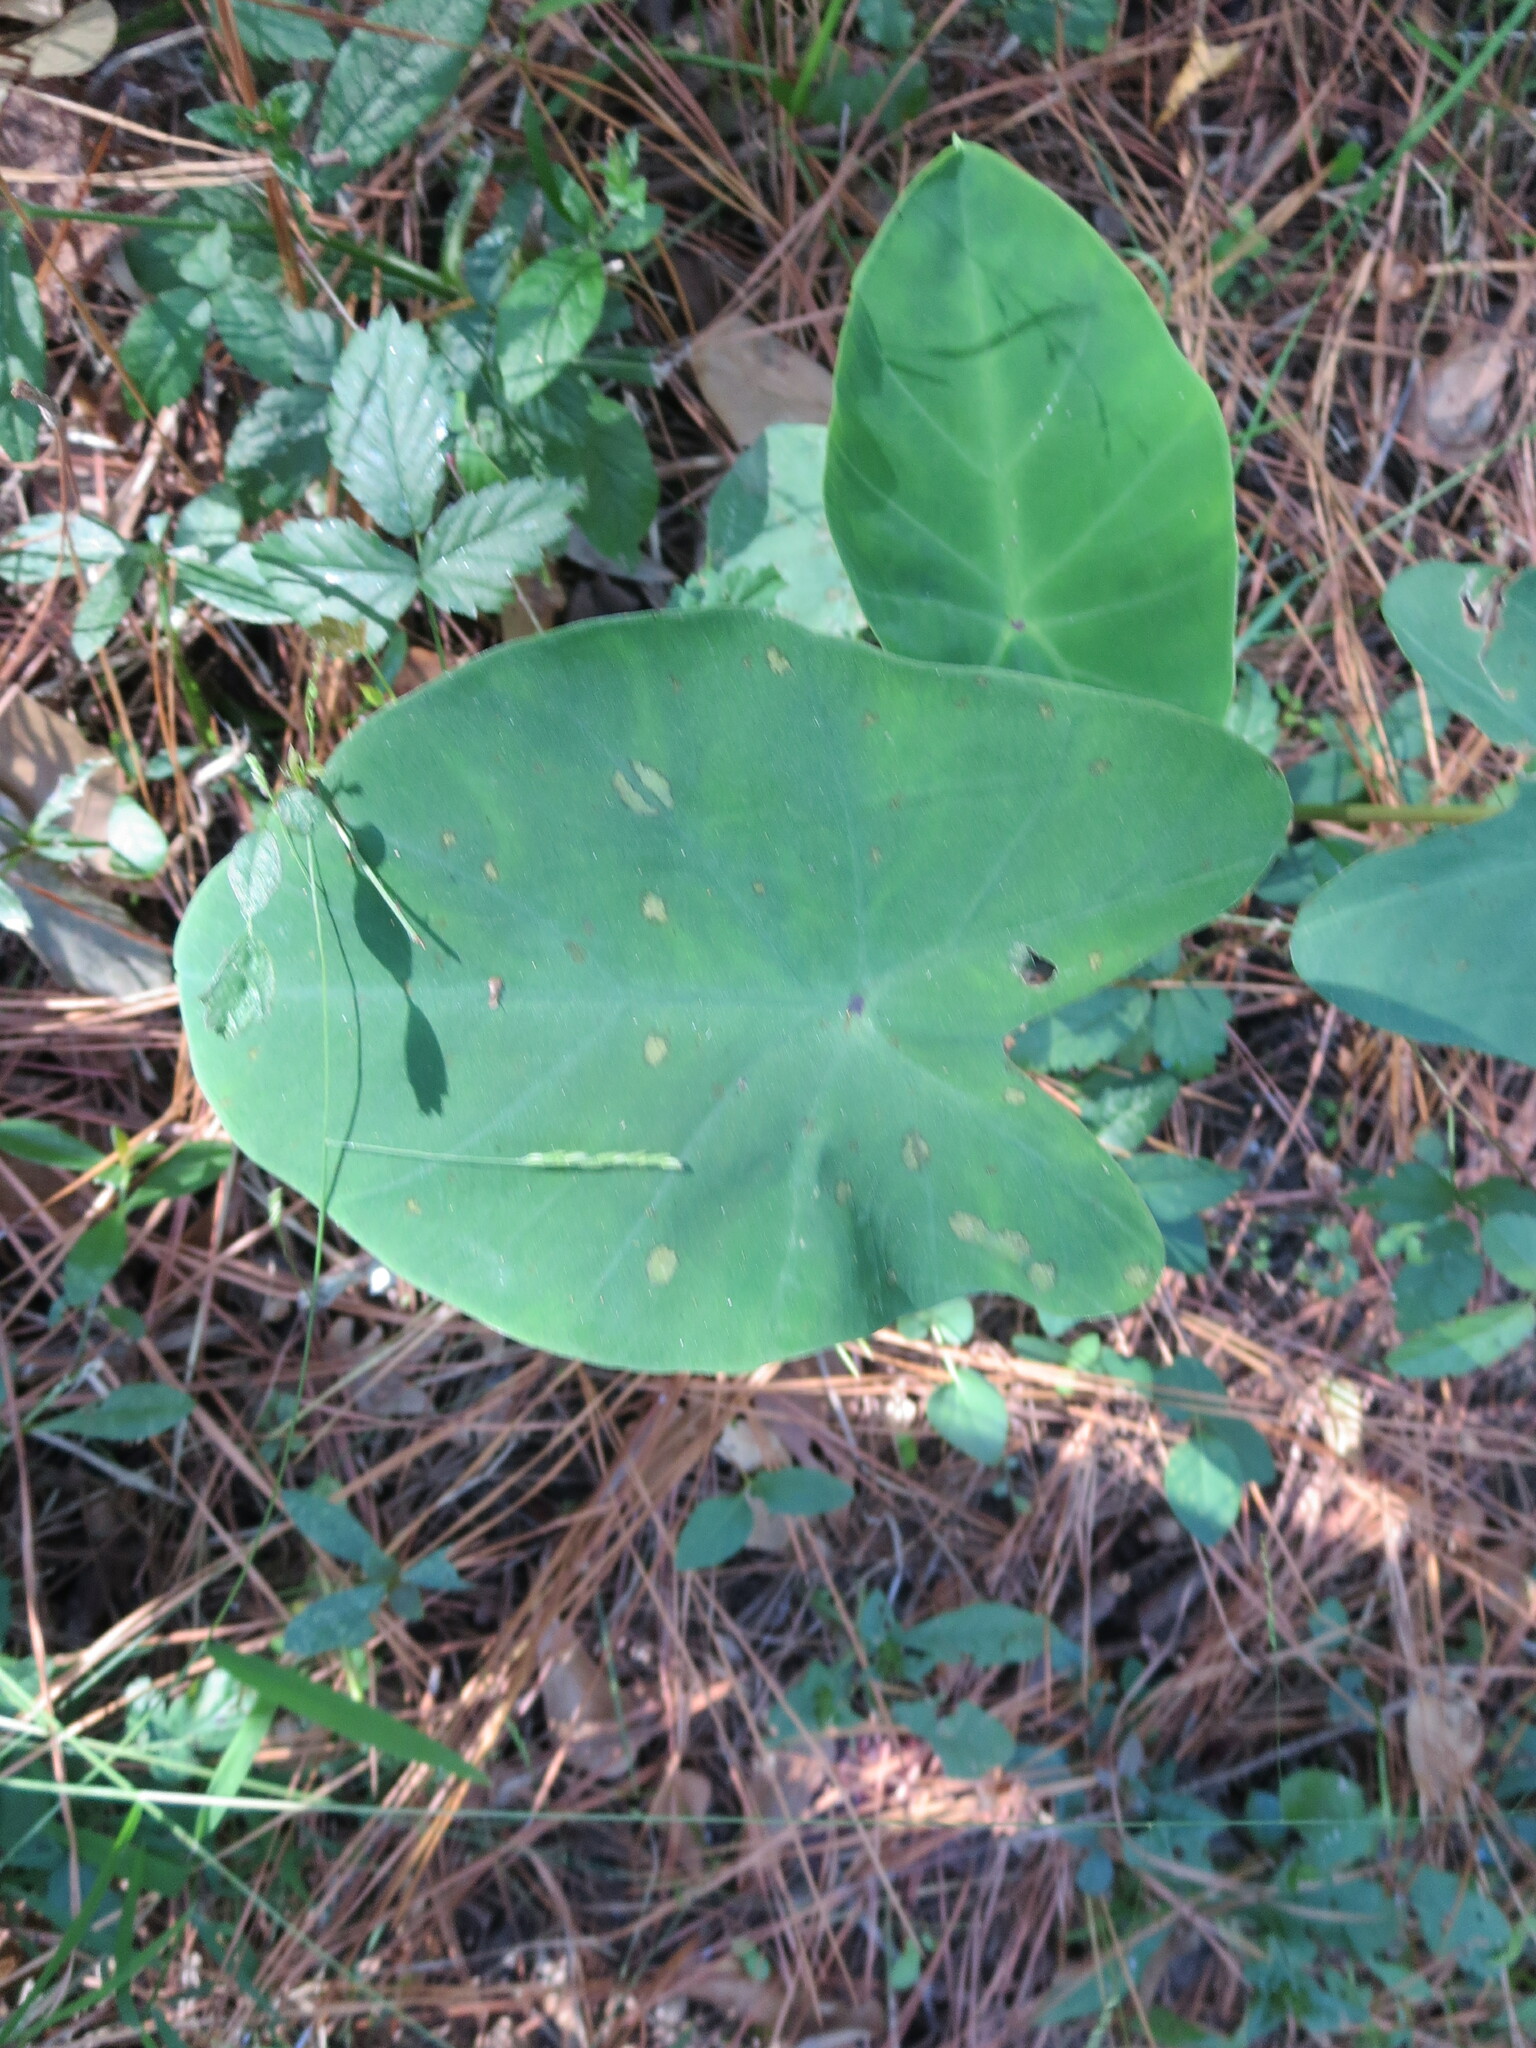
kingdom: Plantae
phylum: Tracheophyta
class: Liliopsida
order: Alismatales
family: Araceae
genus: Colocasia
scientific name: Colocasia esculenta
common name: Taro
